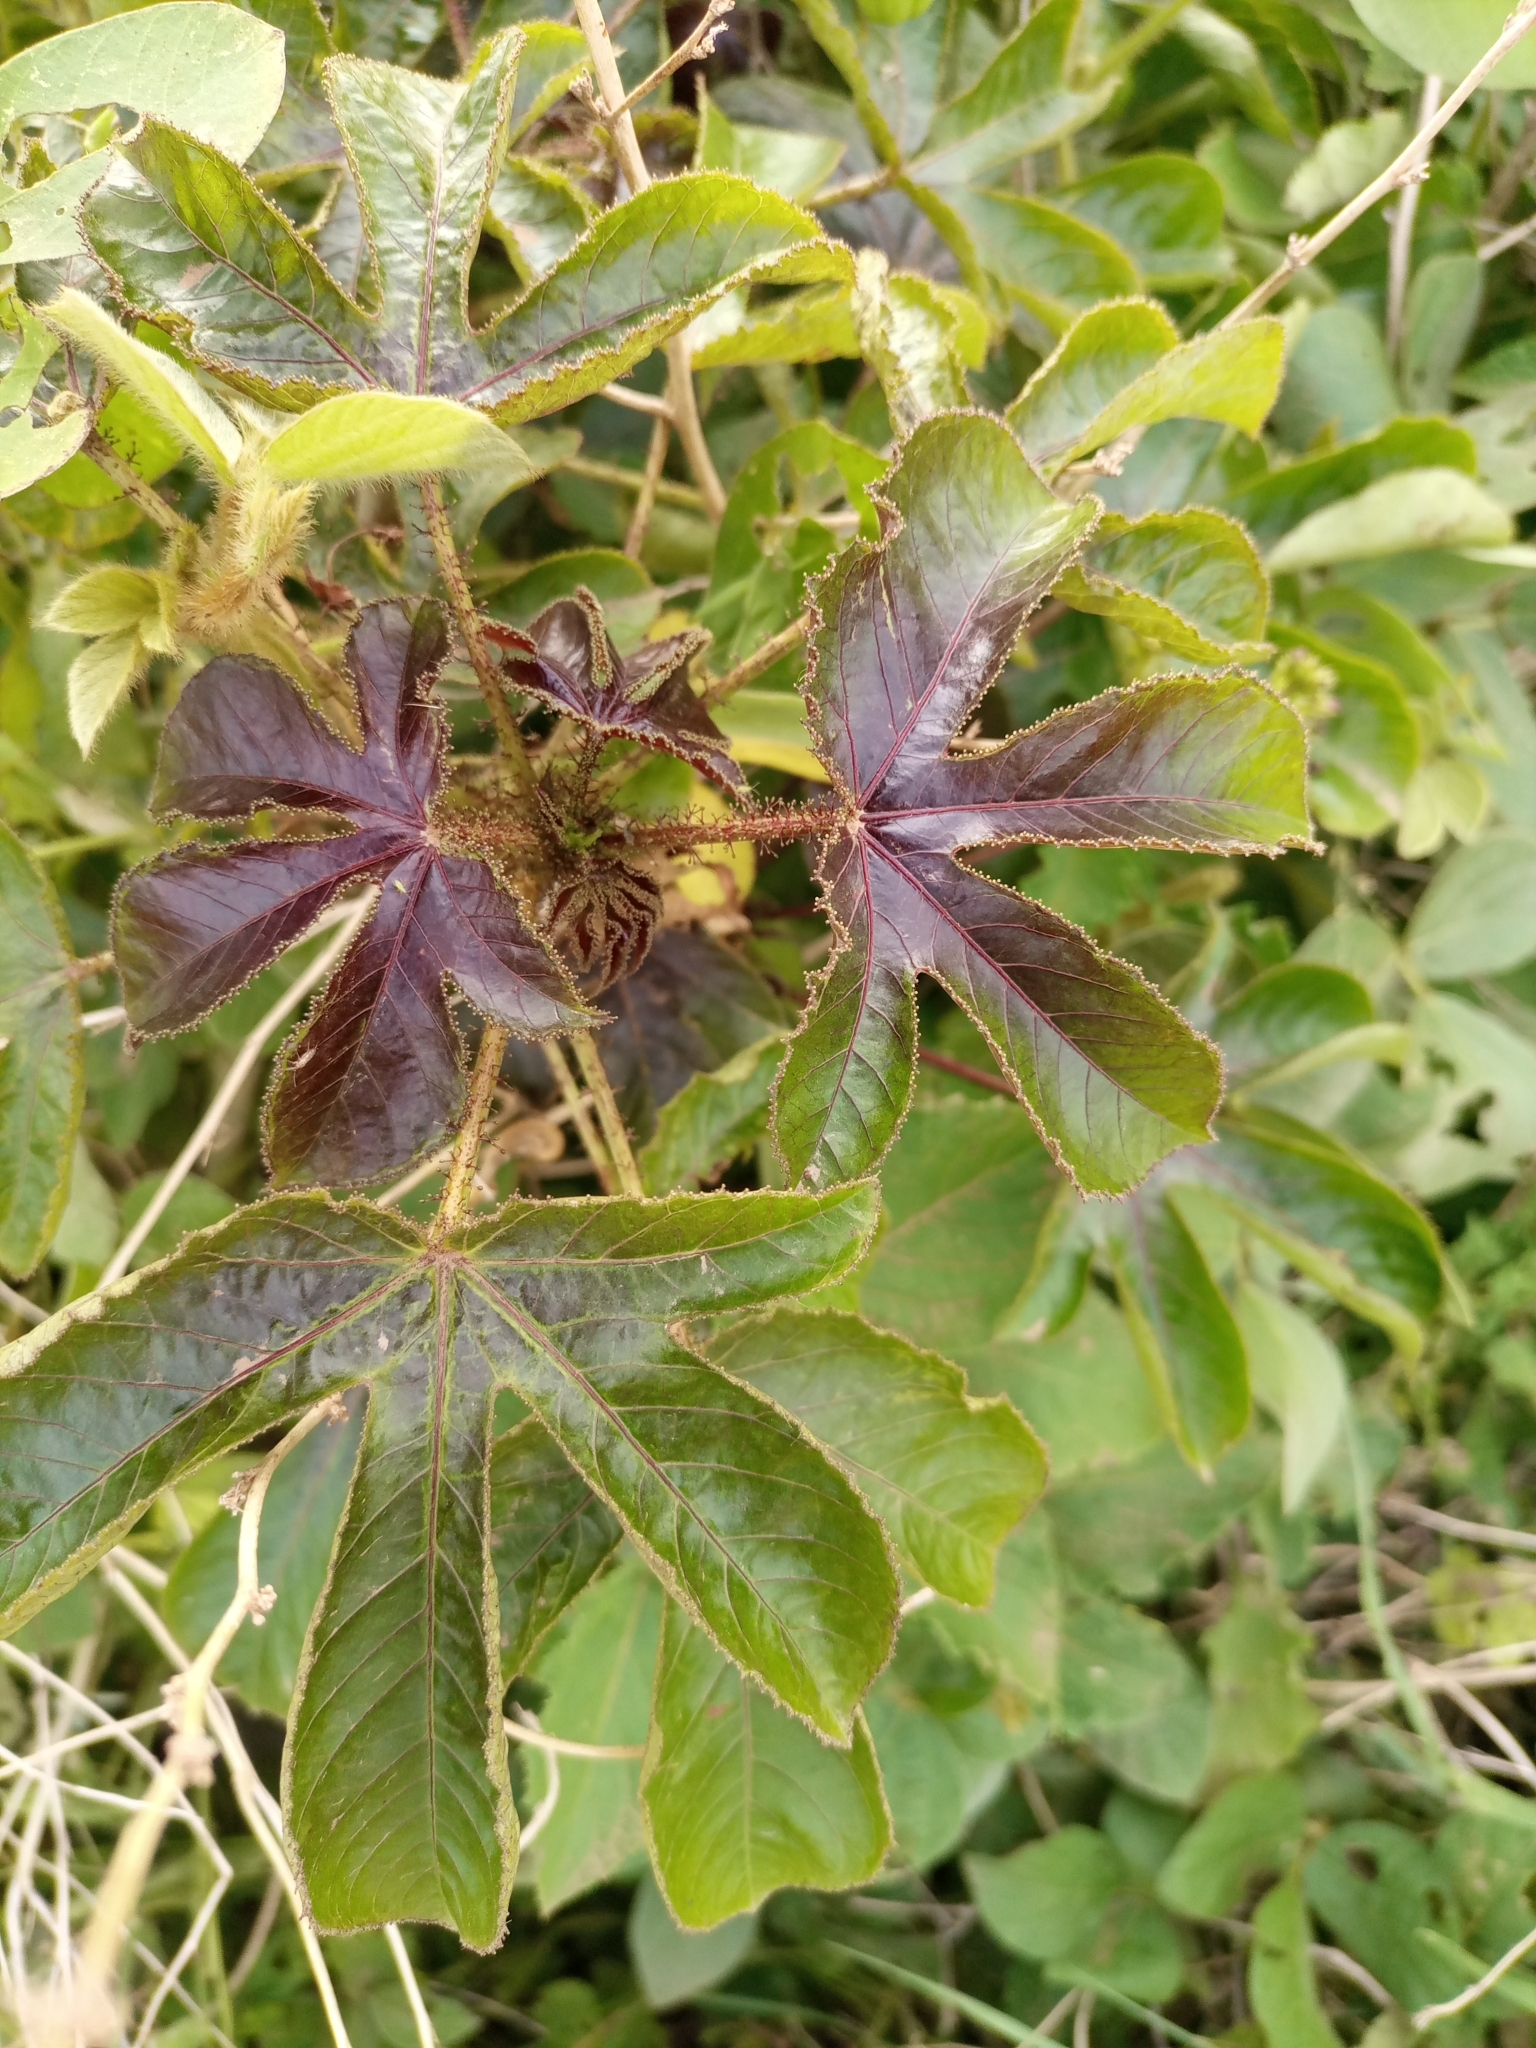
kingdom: Plantae
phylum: Tracheophyta
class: Magnoliopsida
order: Malpighiales
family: Euphorbiaceae
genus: Jatropha
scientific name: Jatropha gossypiifolia
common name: Bellyache bush
